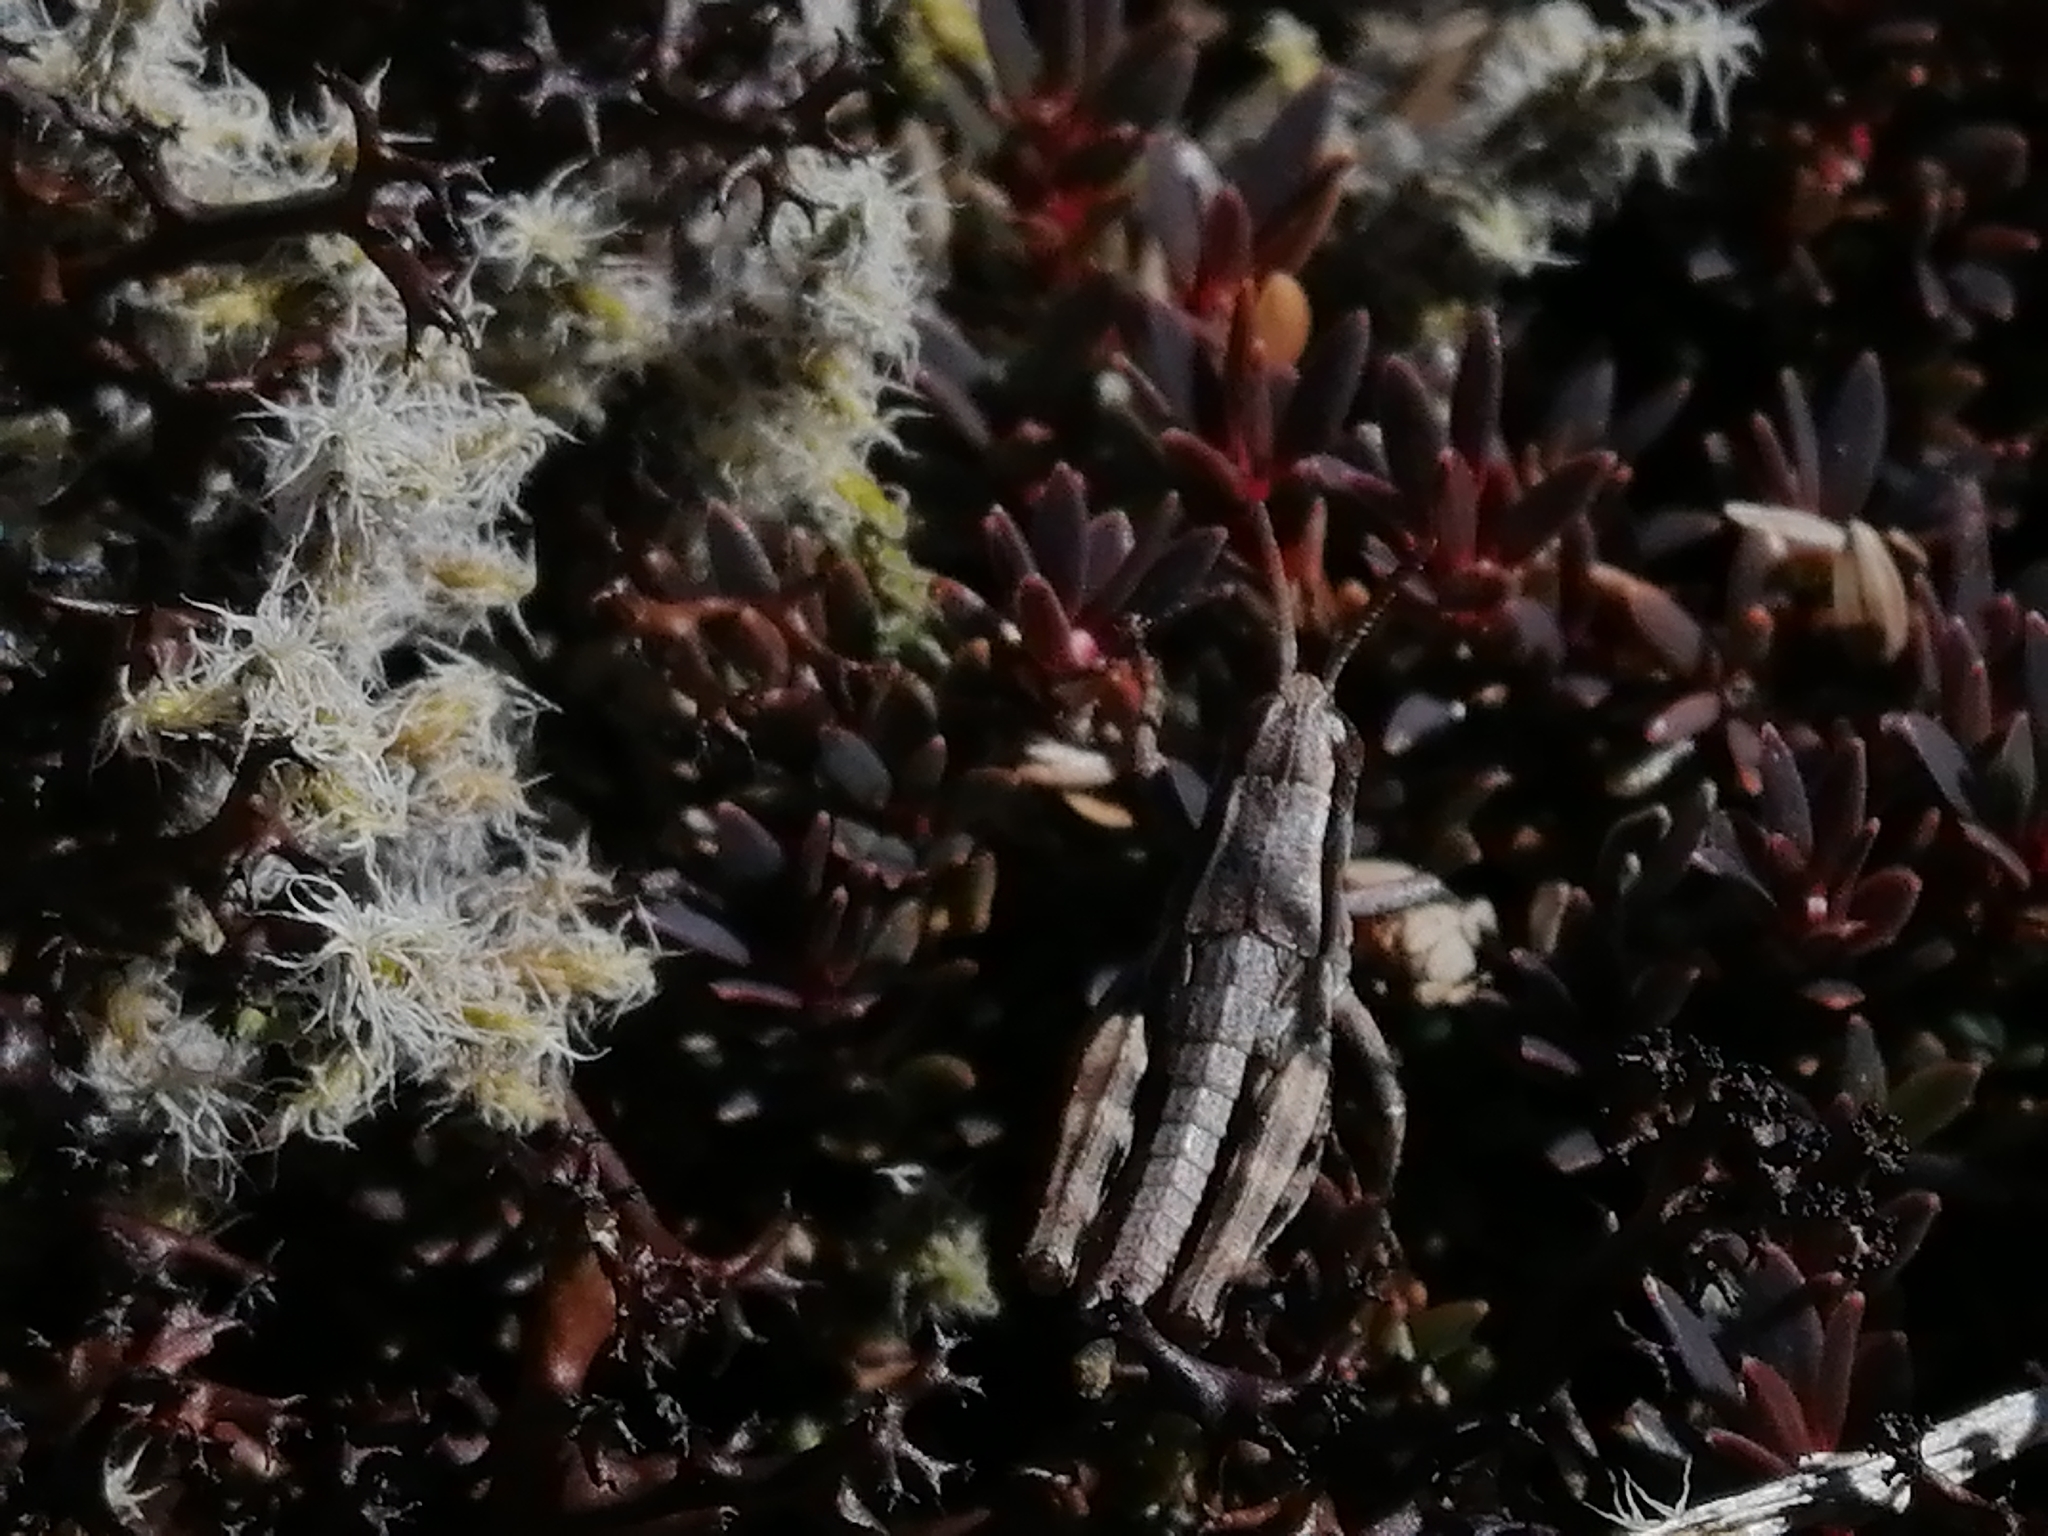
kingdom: Animalia
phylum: Arthropoda
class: Insecta
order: Orthoptera
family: Acrididae
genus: Sigaus
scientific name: Sigaus
